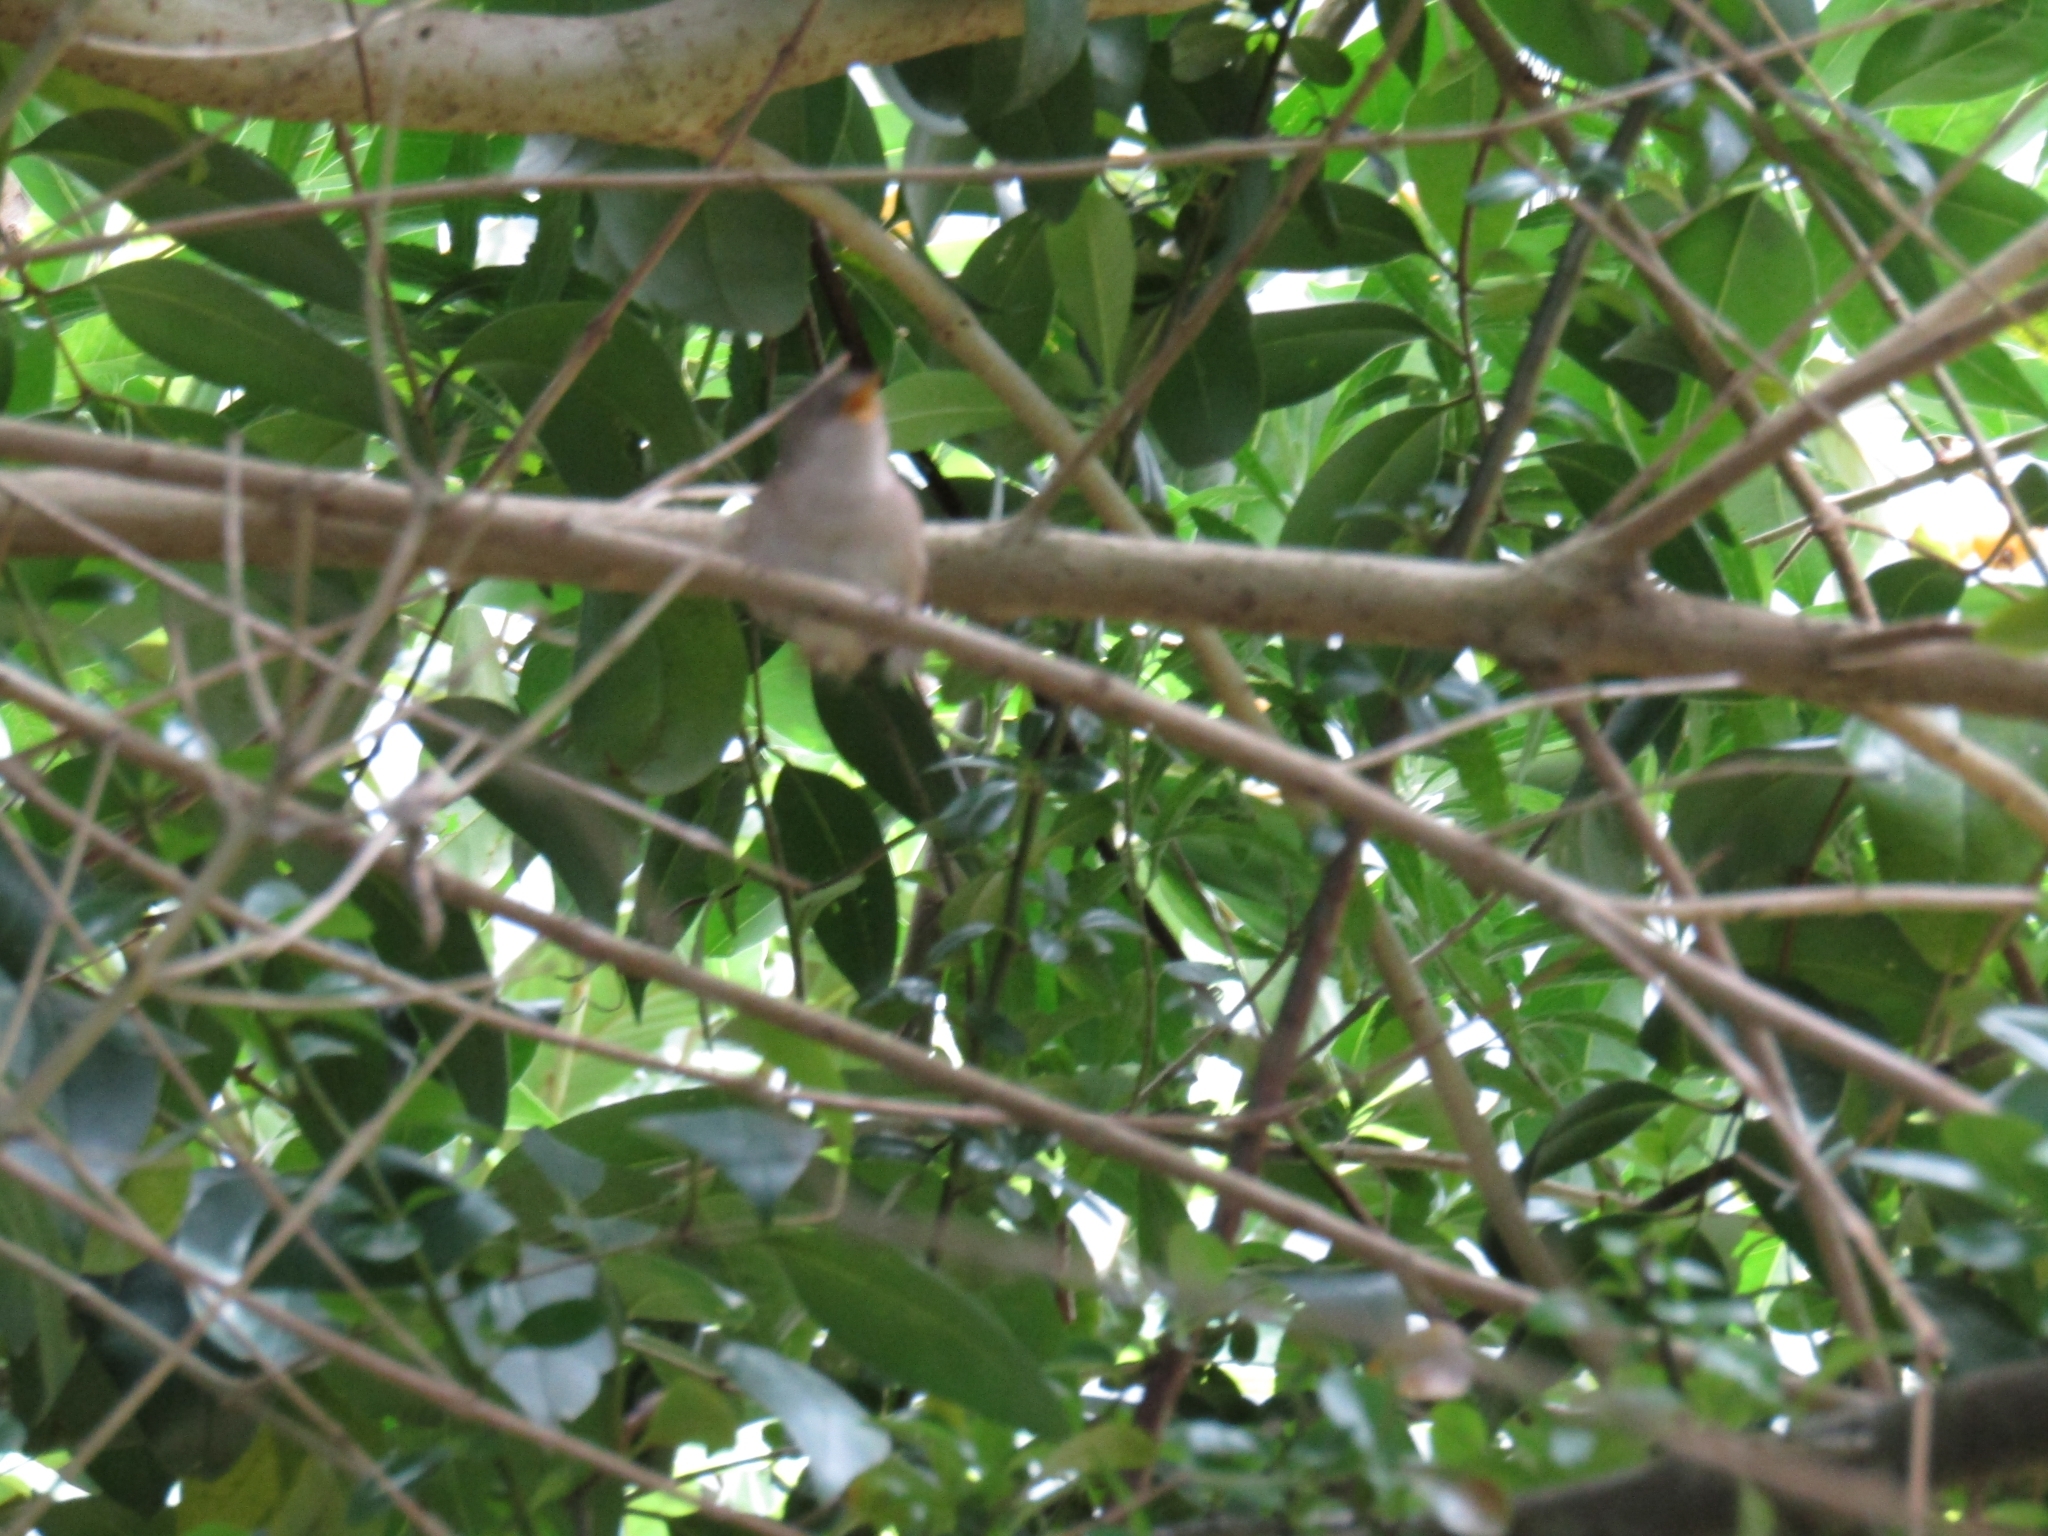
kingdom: Animalia
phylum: Chordata
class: Aves
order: Passeriformes
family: Troglodytidae
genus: Troglodytes
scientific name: Troglodytes aedon
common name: House wren
